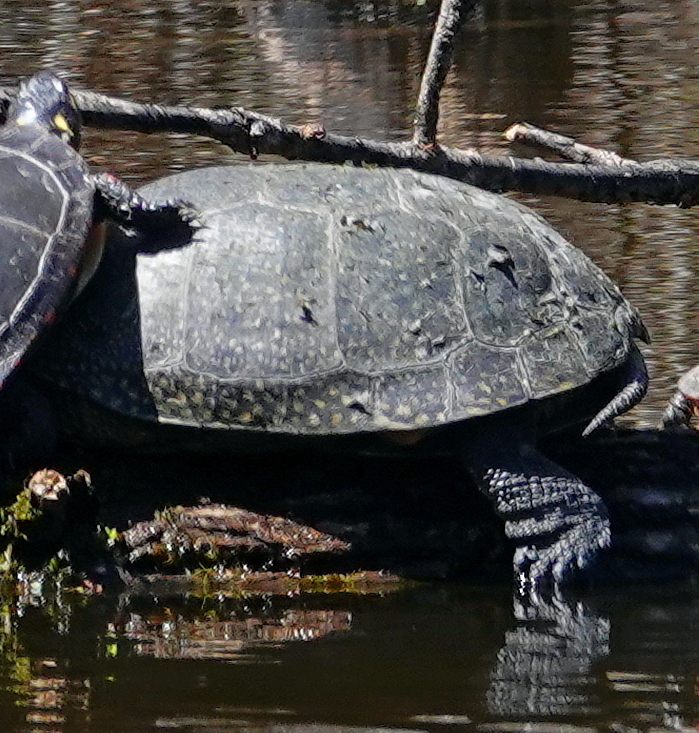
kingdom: Animalia
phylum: Chordata
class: Testudines
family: Emydidae
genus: Emys
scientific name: Emys blandingii
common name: Blanding's turtle
